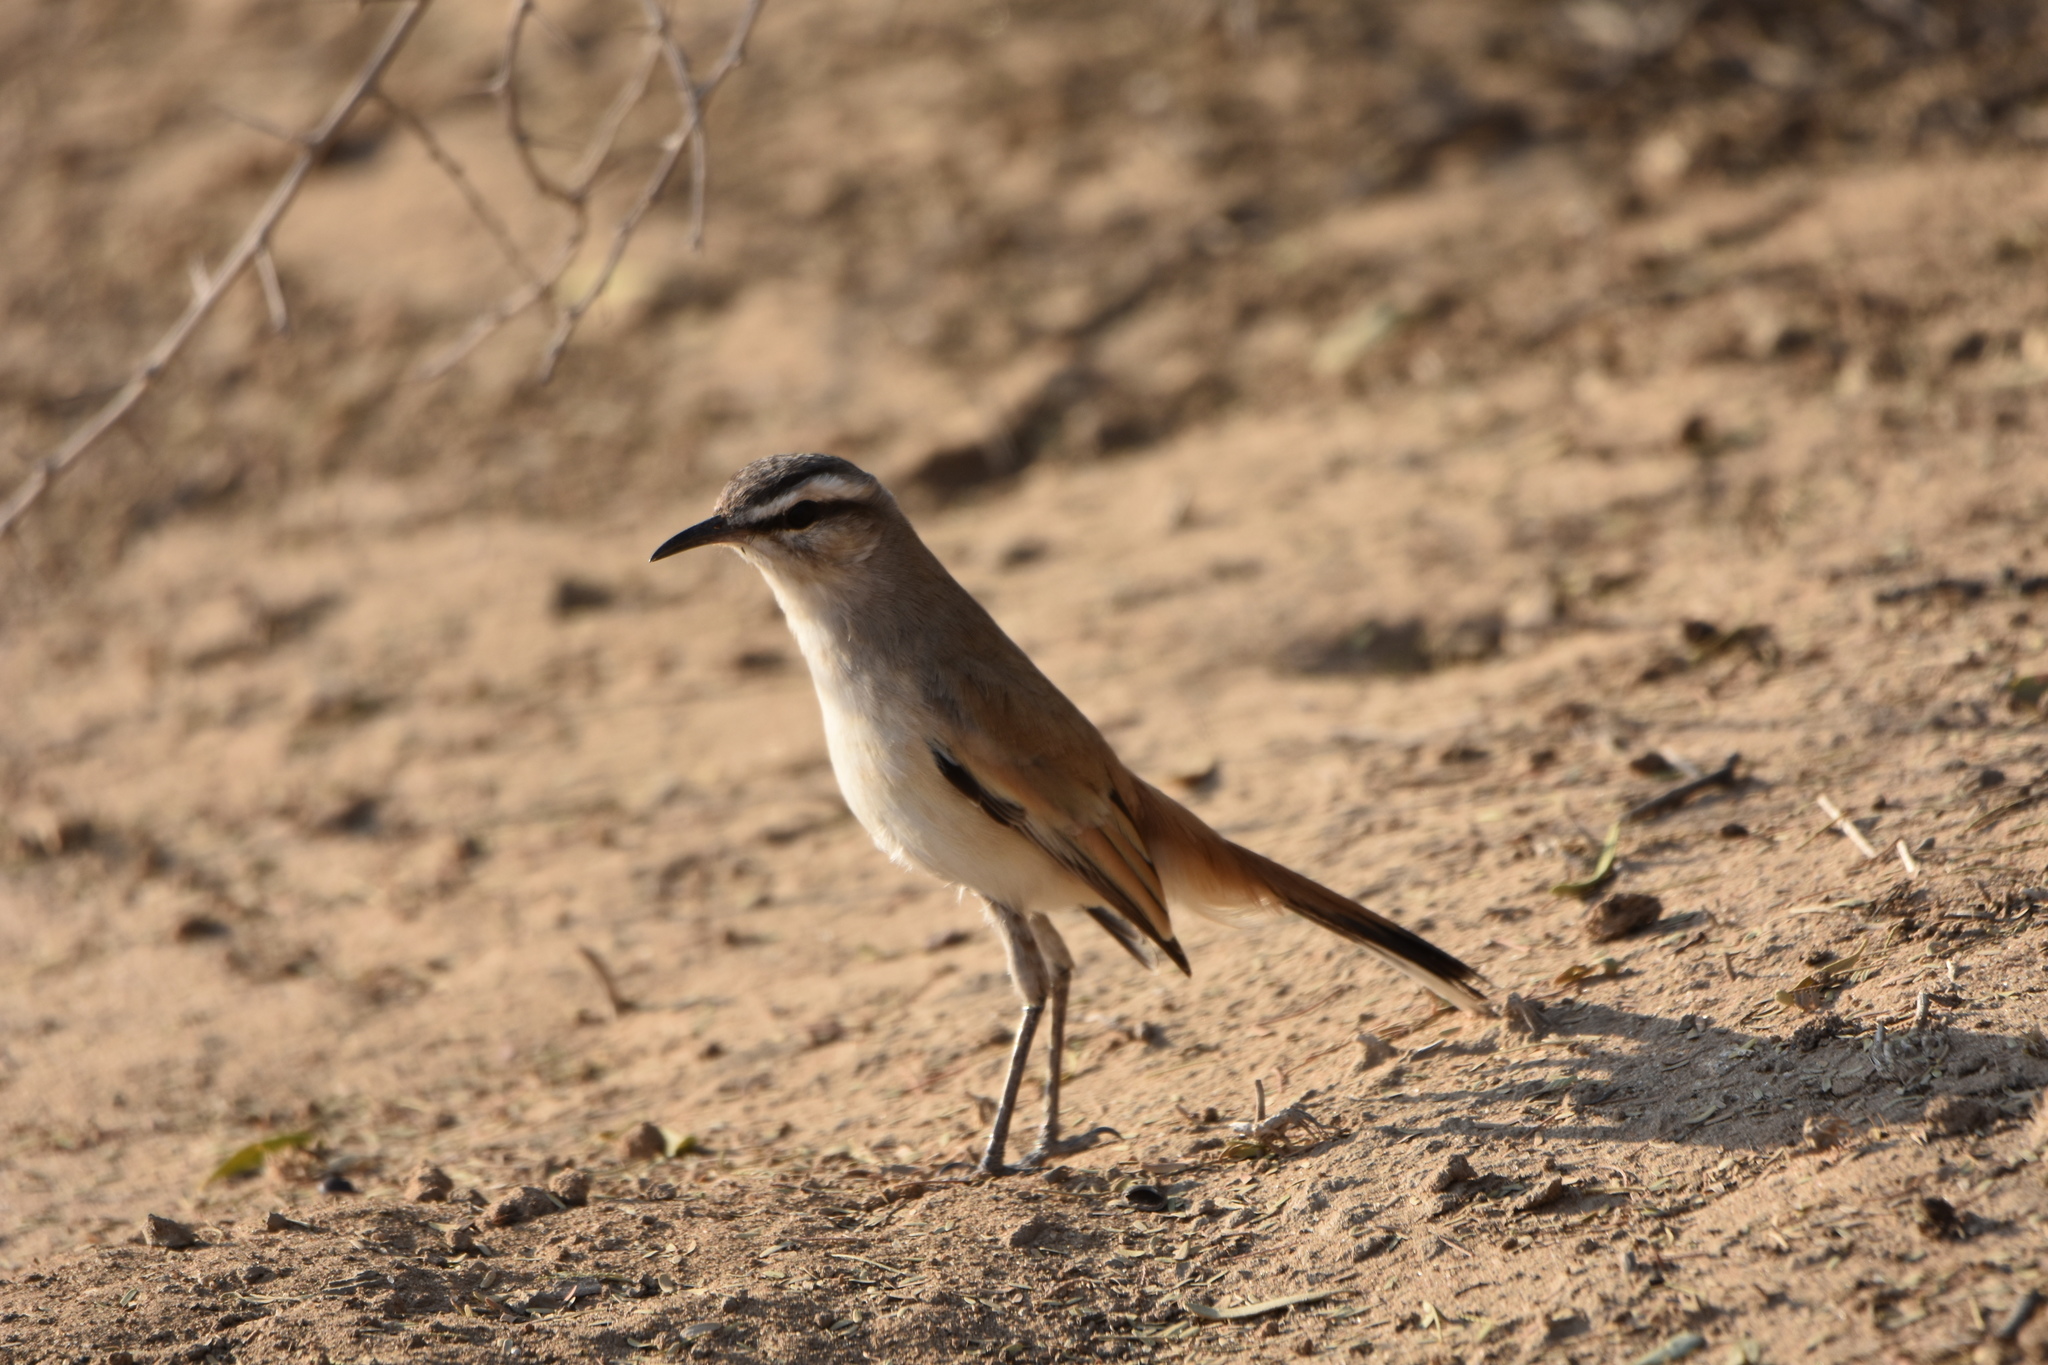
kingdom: Animalia
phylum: Chordata
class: Aves
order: Passeriformes
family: Muscicapidae
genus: Erythropygia
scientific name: Erythropygia paena
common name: Kalahari scrub robin
